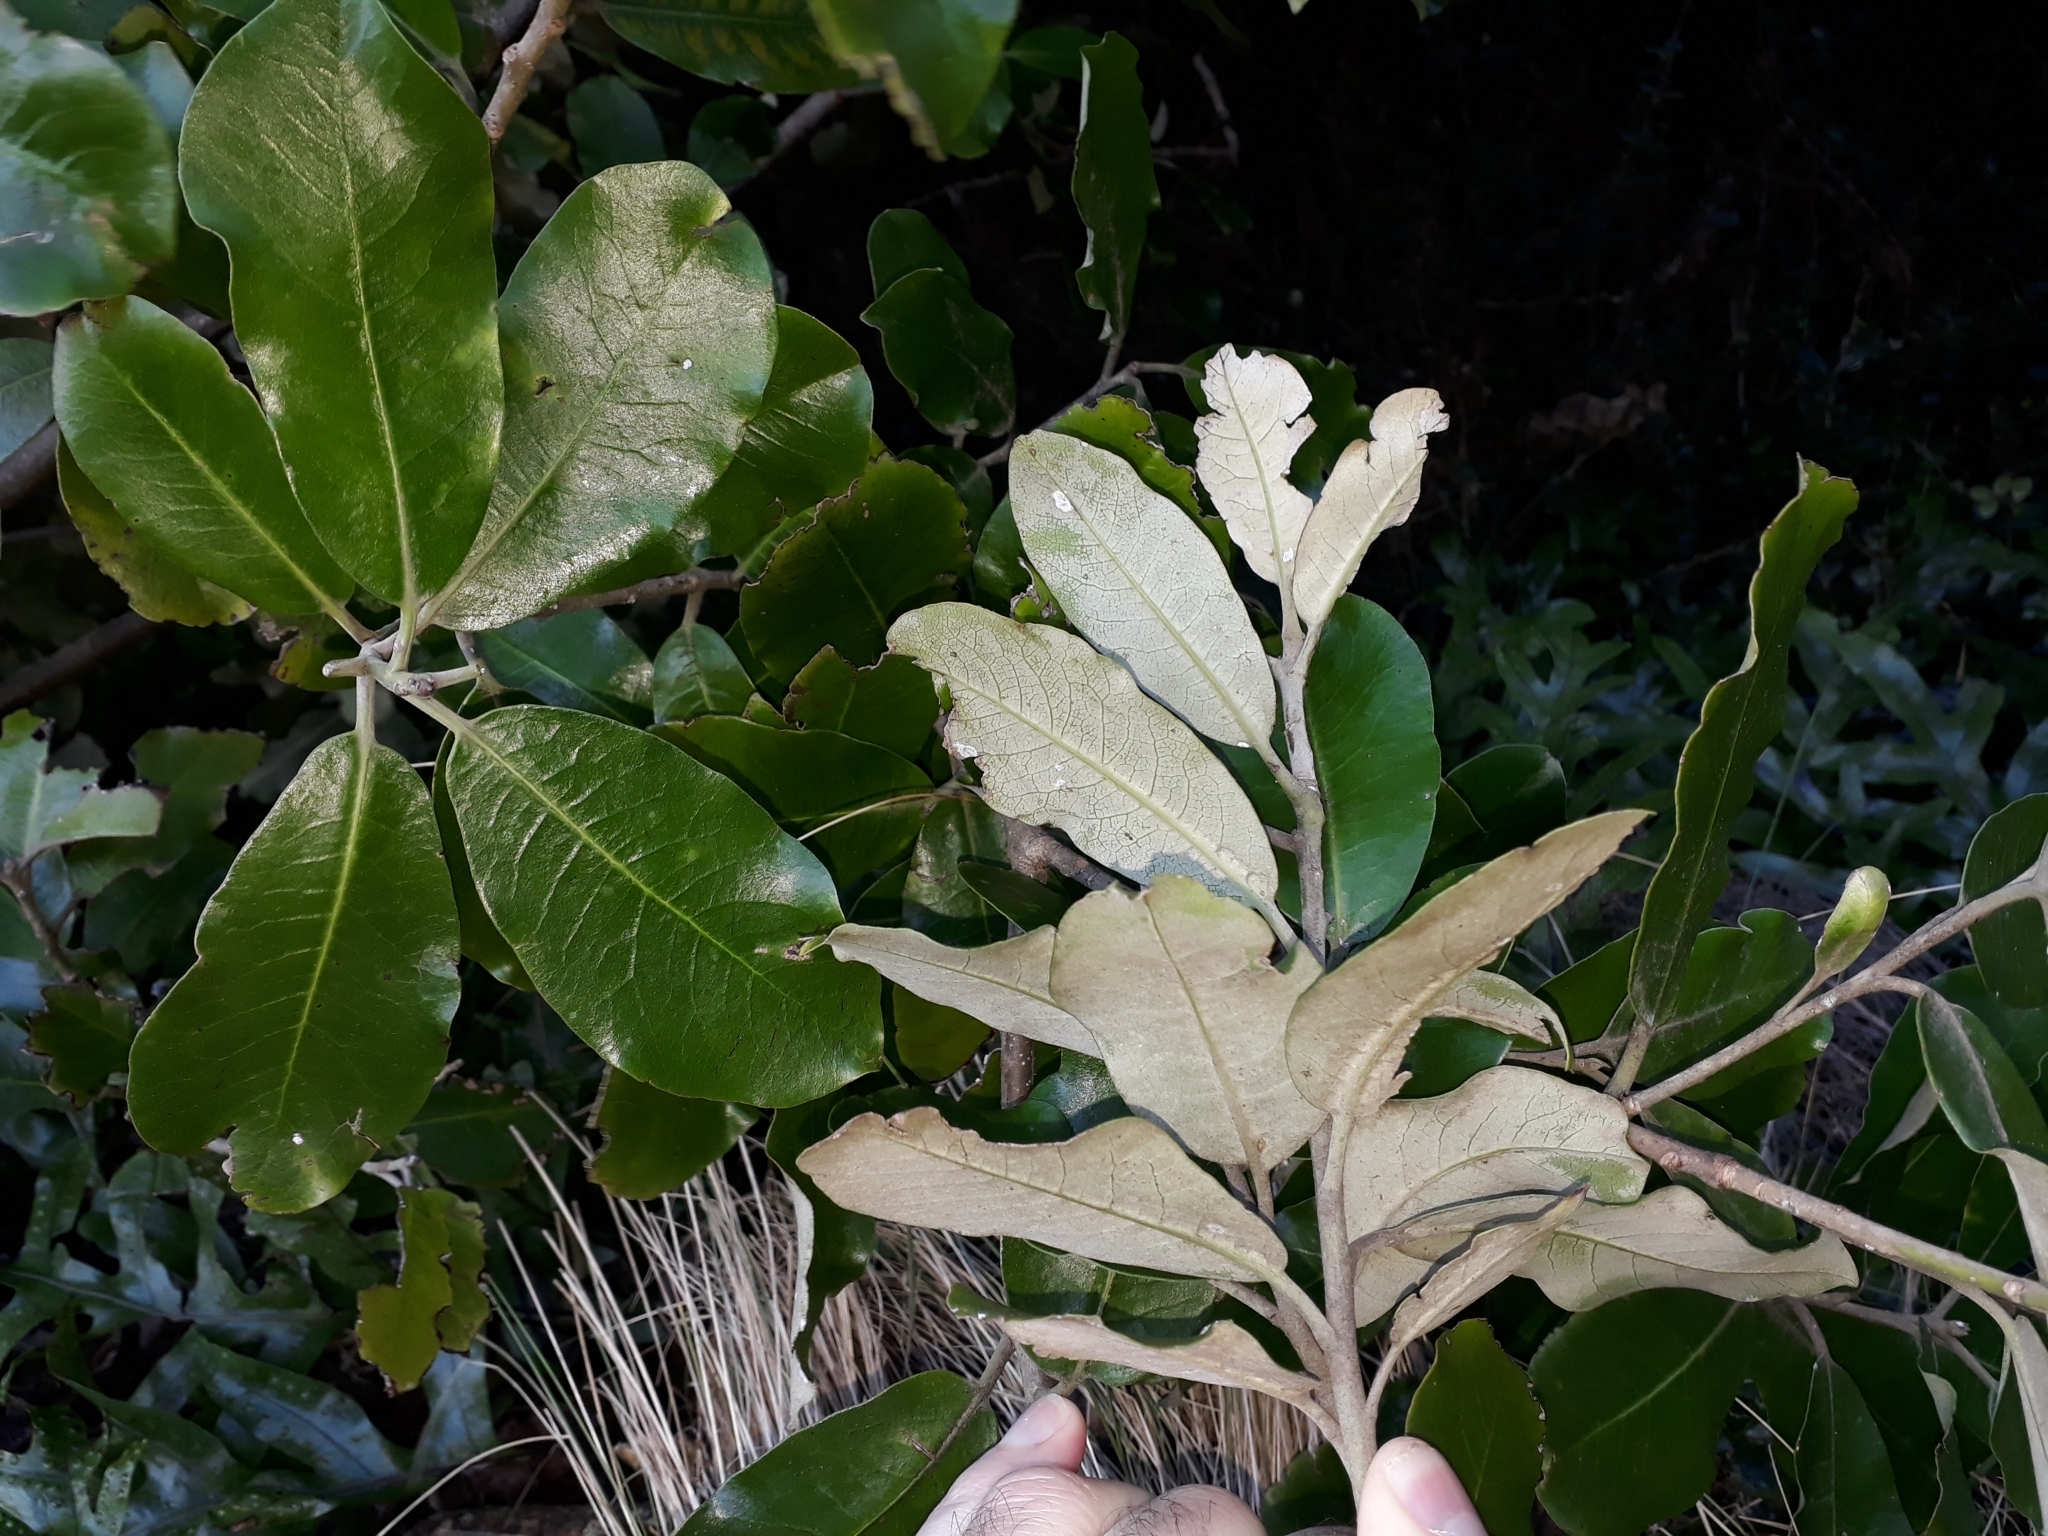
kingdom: Plantae
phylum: Tracheophyta
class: Magnoliopsida
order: Apiales
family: Pittosporaceae
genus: Pittosporum
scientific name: Pittosporum ralphii
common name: Ralph's desertwillow
